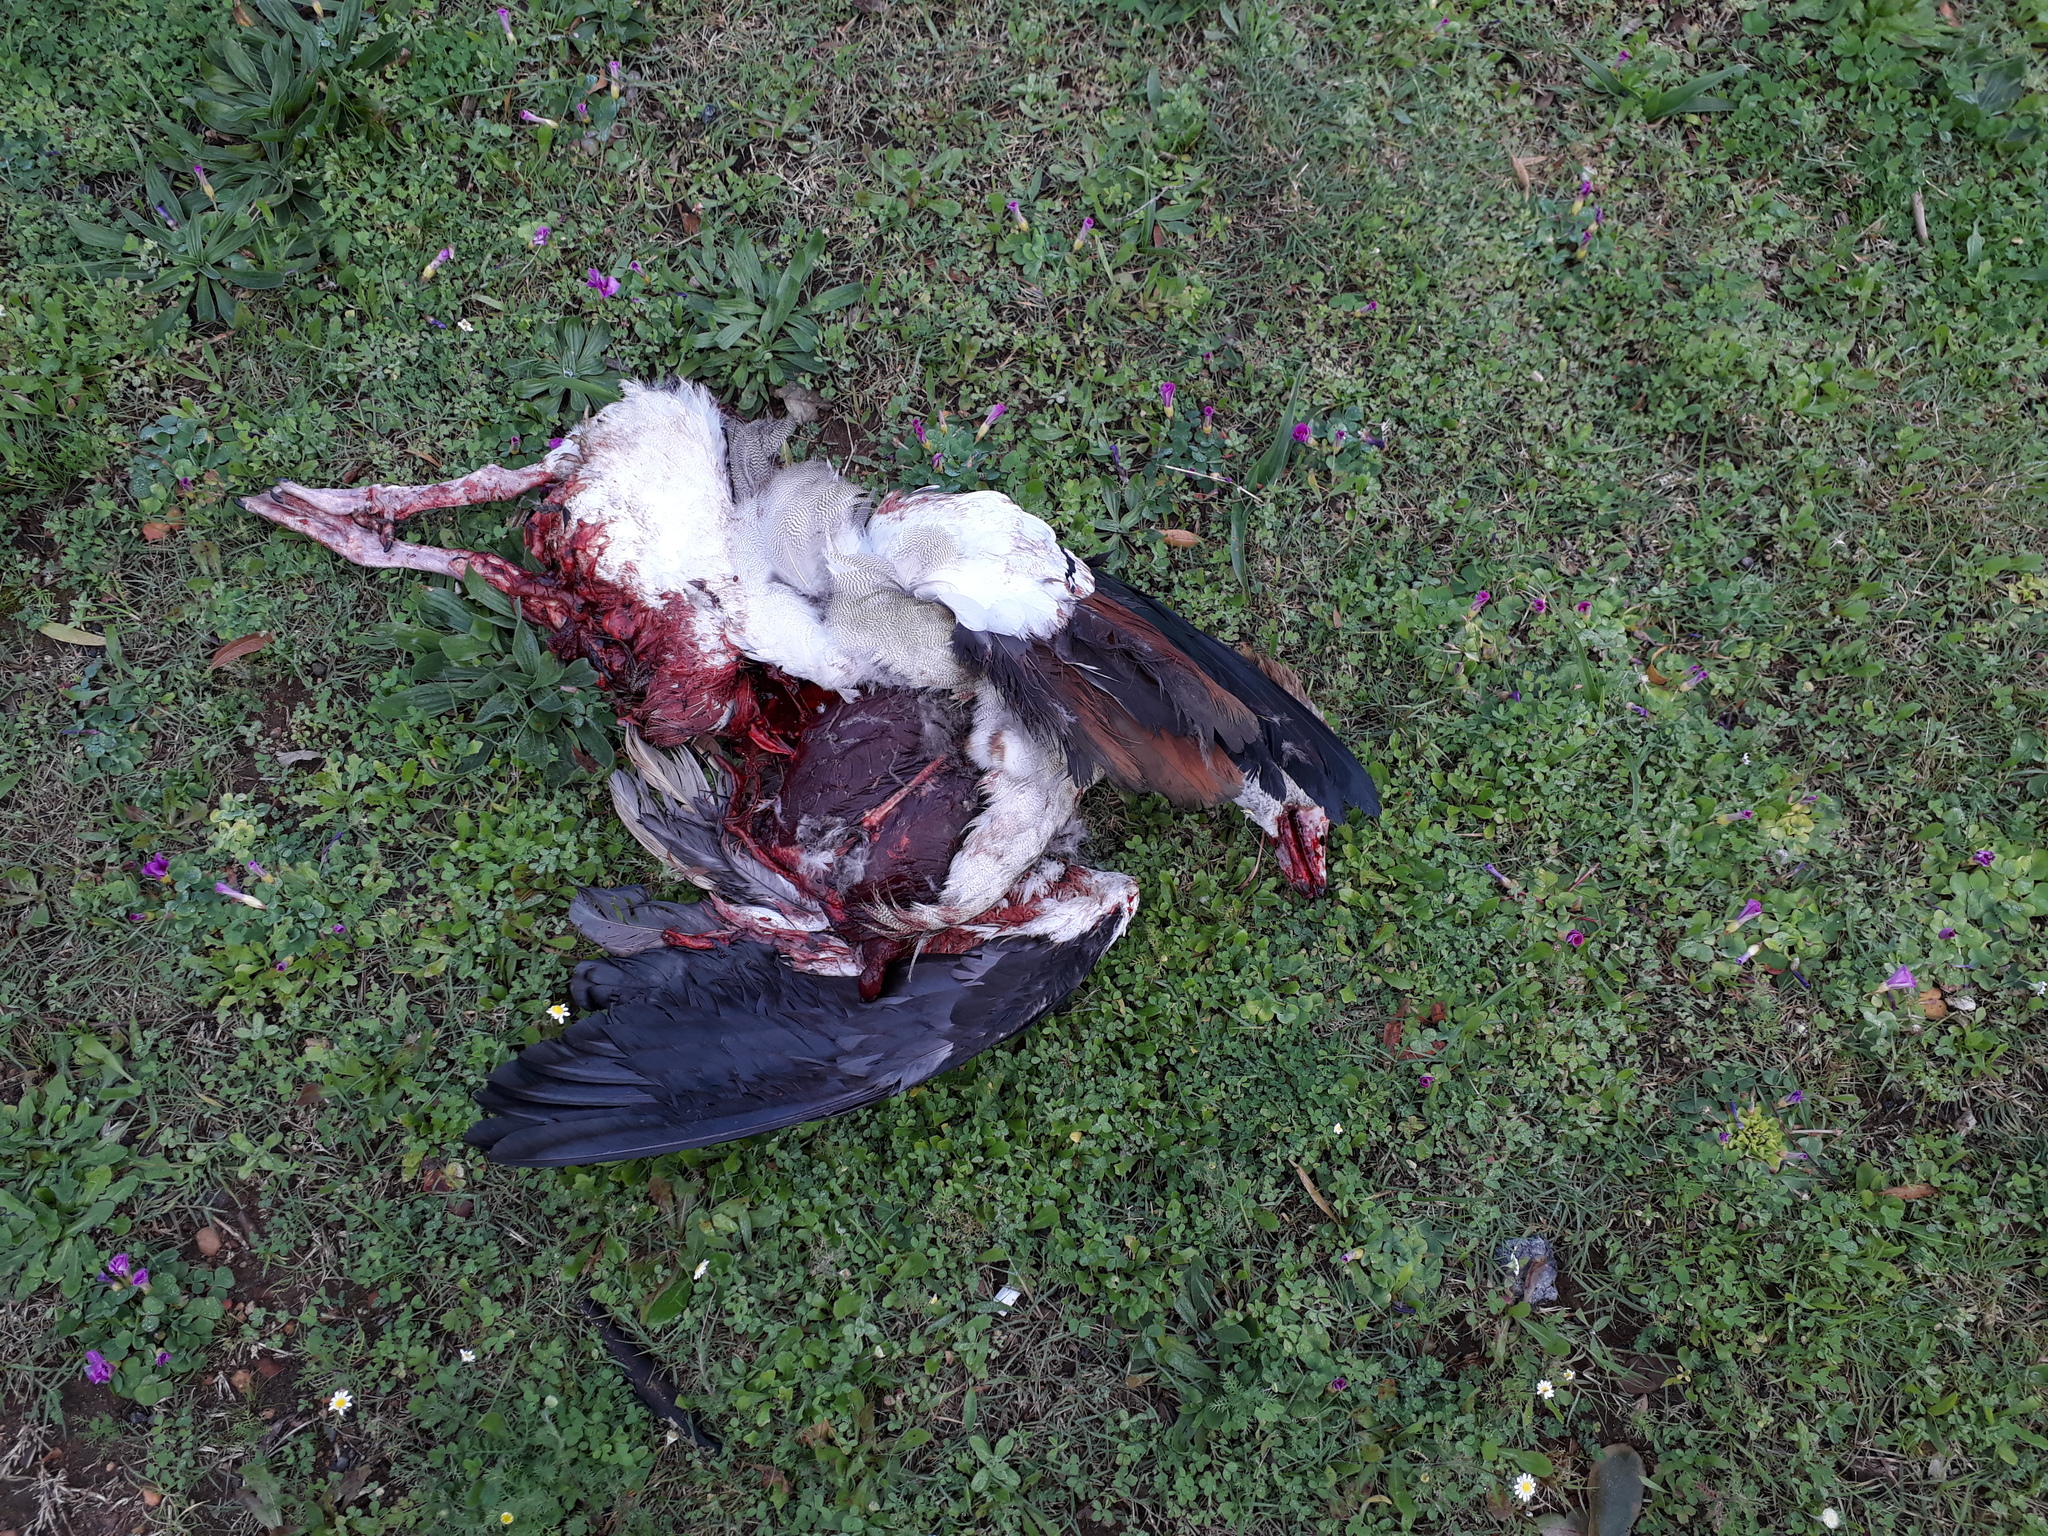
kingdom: Animalia
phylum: Chordata
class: Aves
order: Anseriformes
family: Anatidae
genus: Alopochen
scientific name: Alopochen aegyptiaca
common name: Egyptian goose
